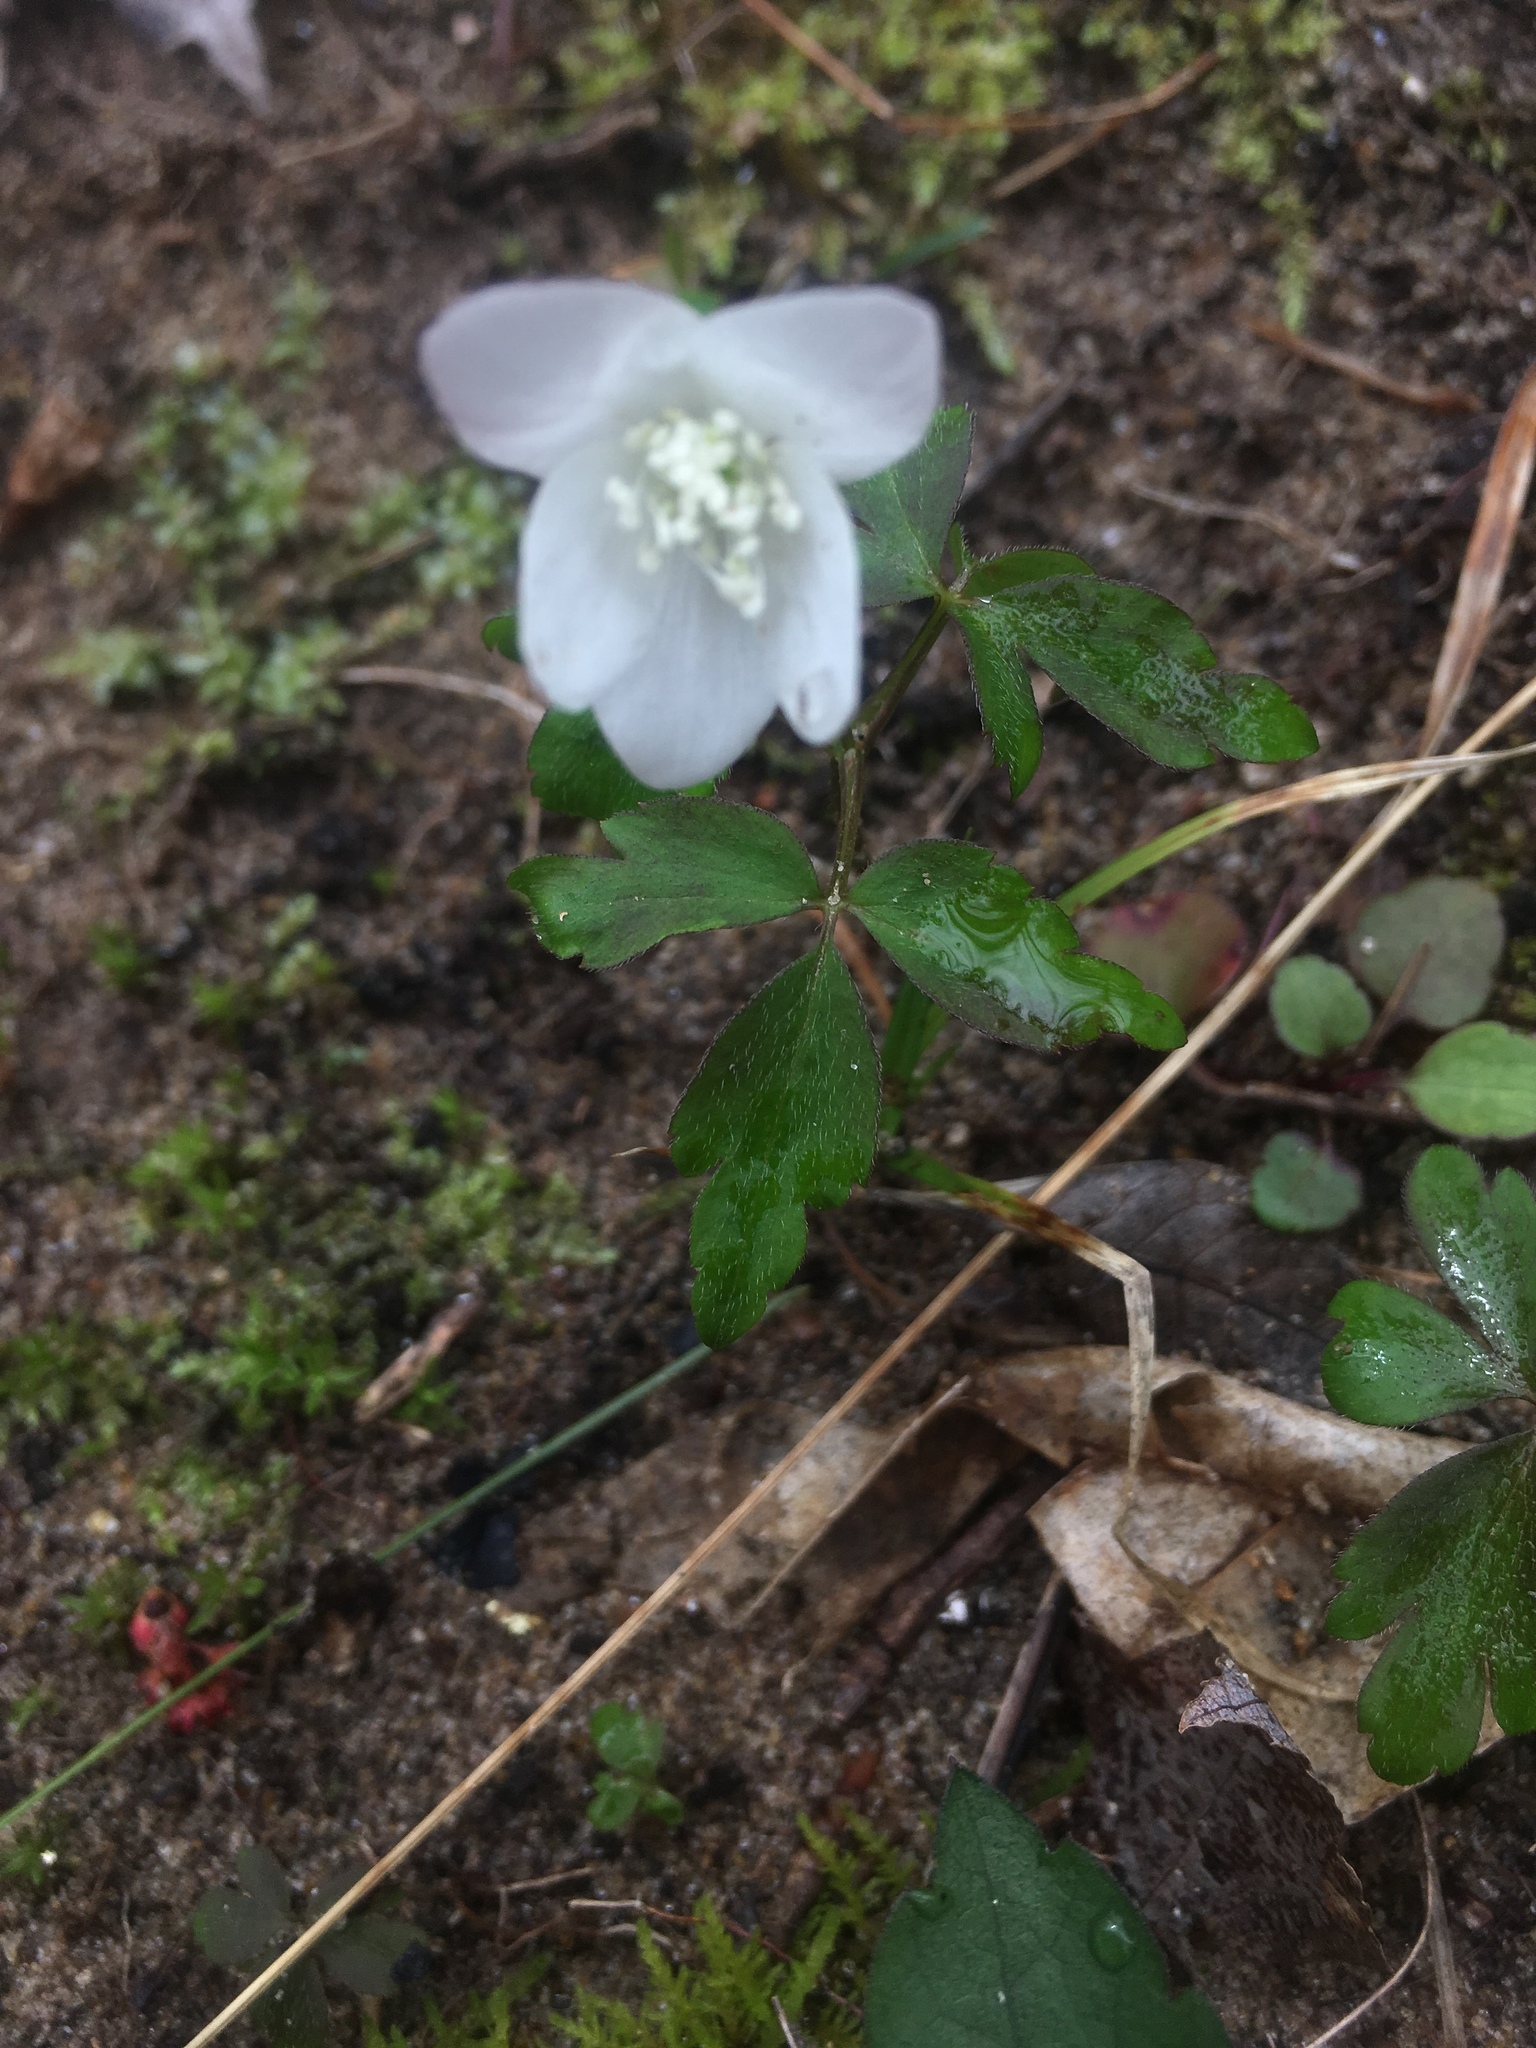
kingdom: Plantae
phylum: Tracheophyta
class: Magnoliopsida
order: Ranunculales
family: Ranunculaceae
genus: Anemone
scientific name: Anemone quinquefolia
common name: Wood anemone
